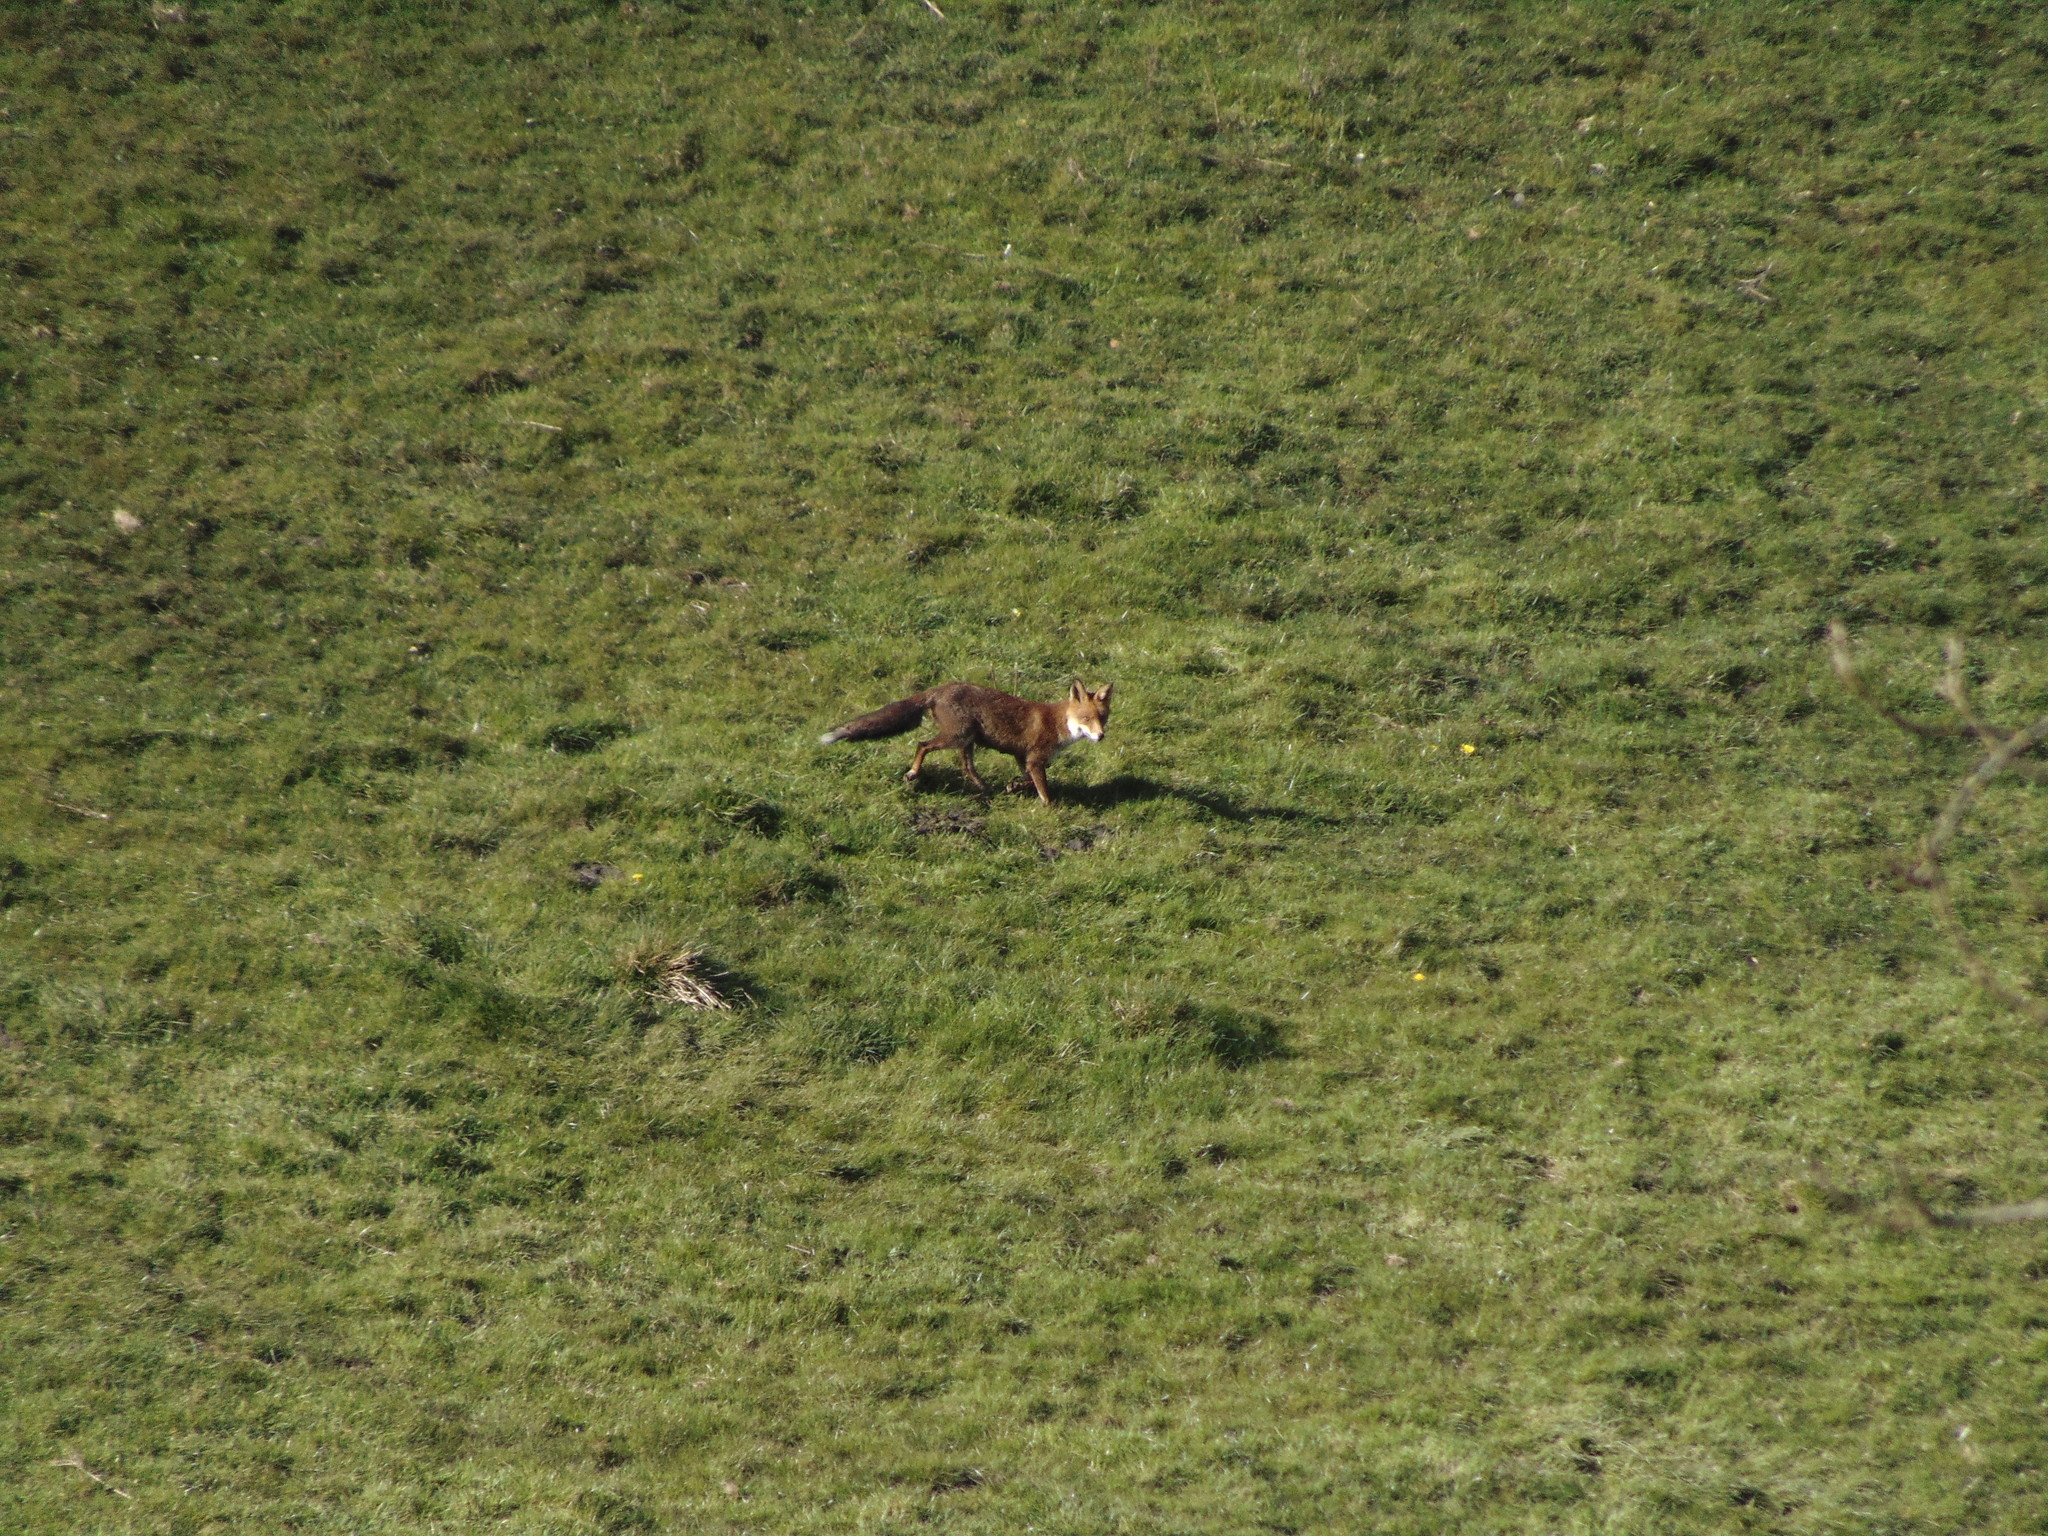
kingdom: Animalia
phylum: Chordata
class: Mammalia
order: Carnivora
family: Canidae
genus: Vulpes
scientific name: Vulpes vulpes
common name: Red fox
